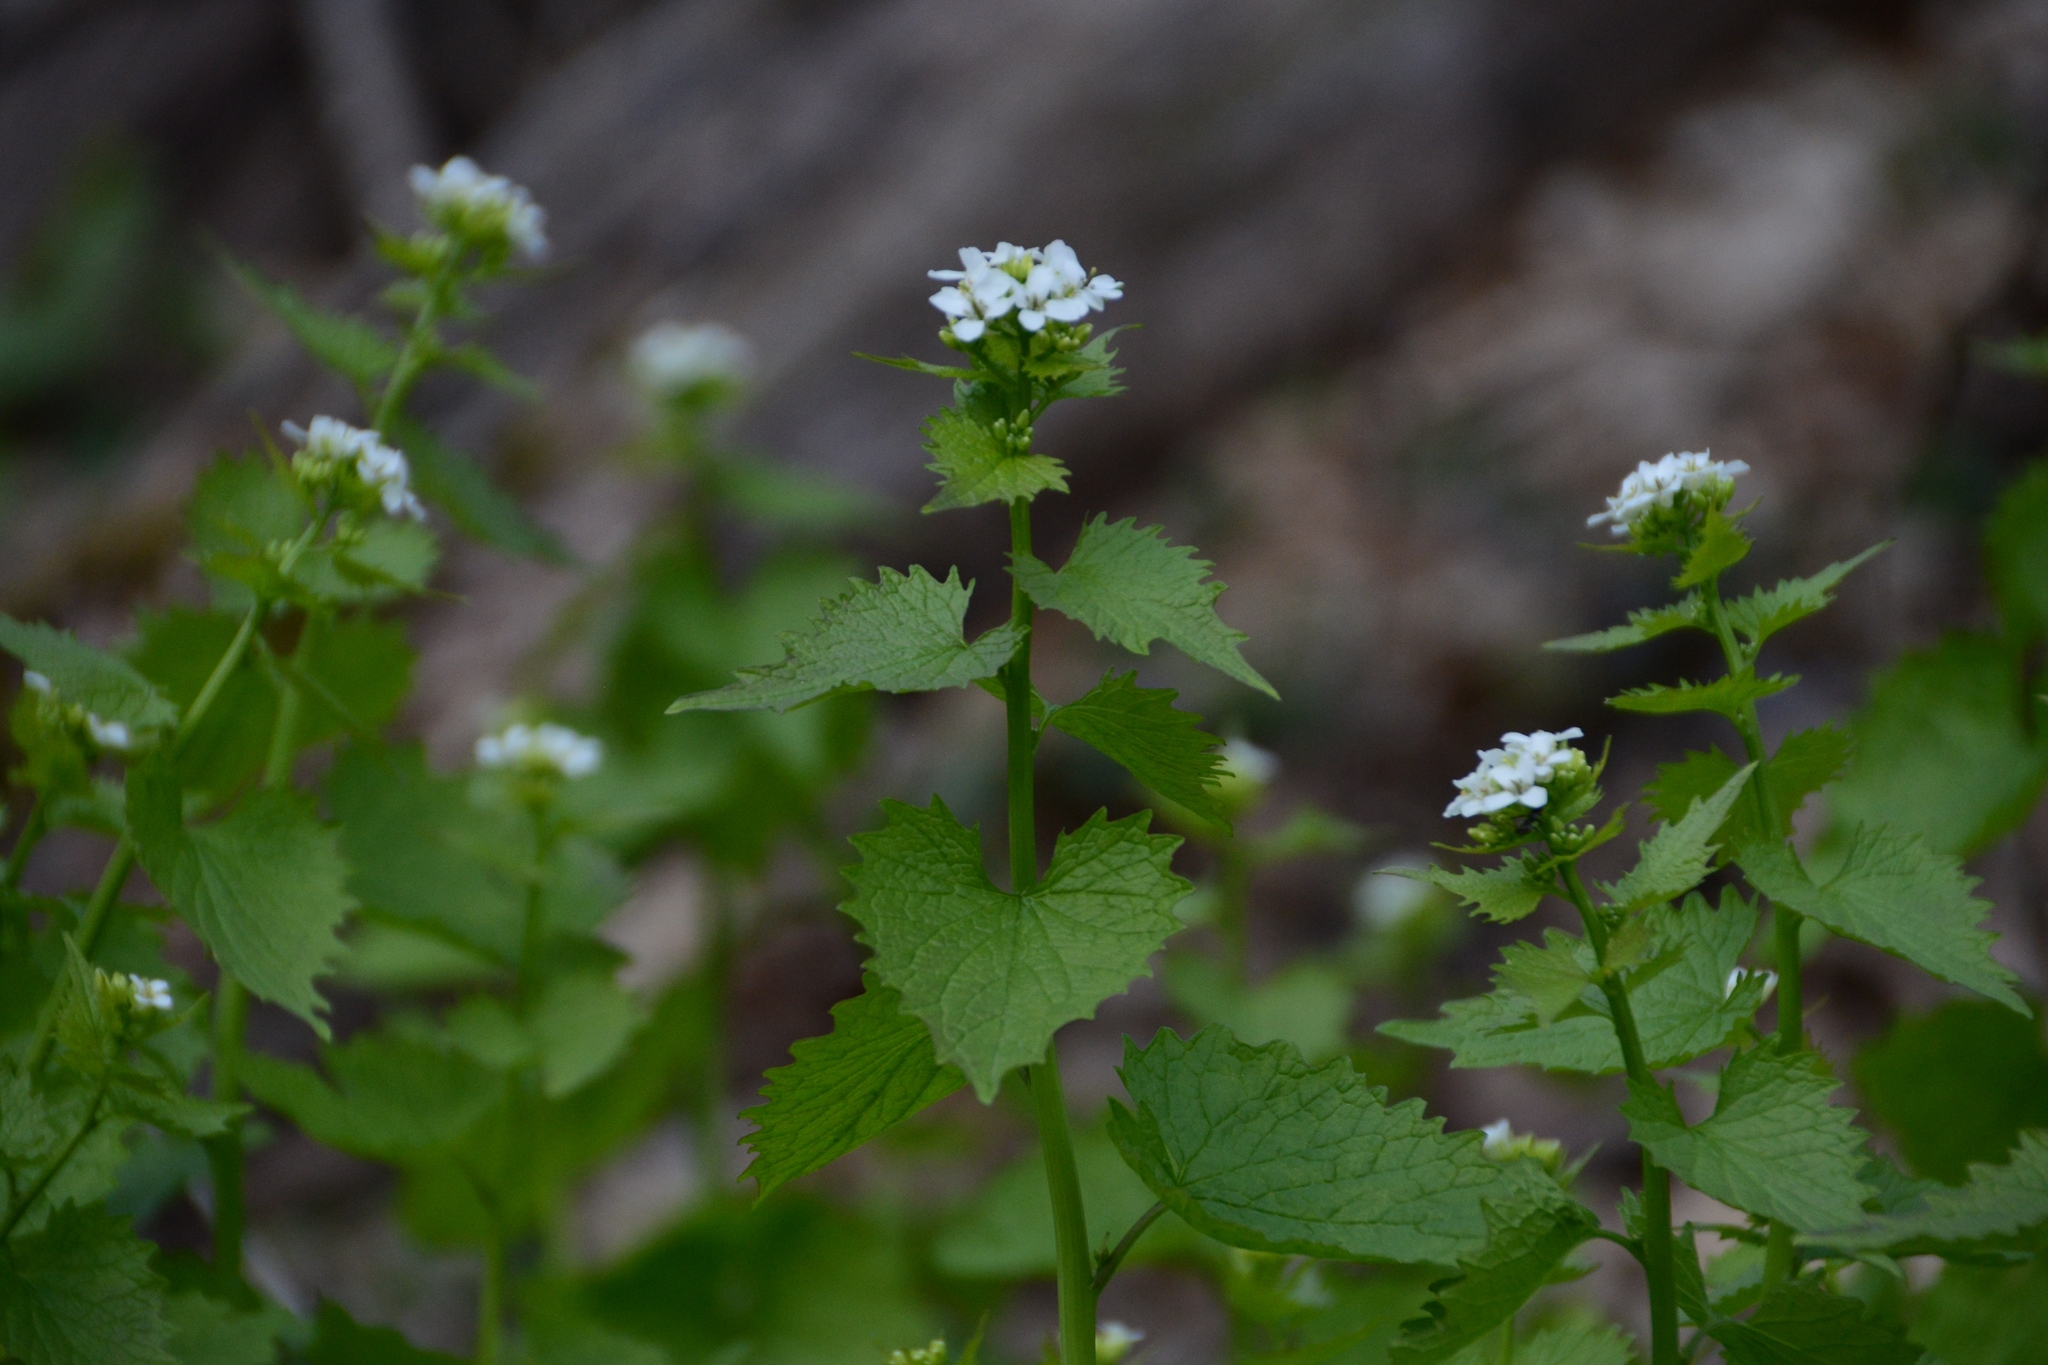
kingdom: Plantae
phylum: Tracheophyta
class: Magnoliopsida
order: Brassicales
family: Brassicaceae
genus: Alliaria
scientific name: Alliaria petiolata
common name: Garlic mustard
